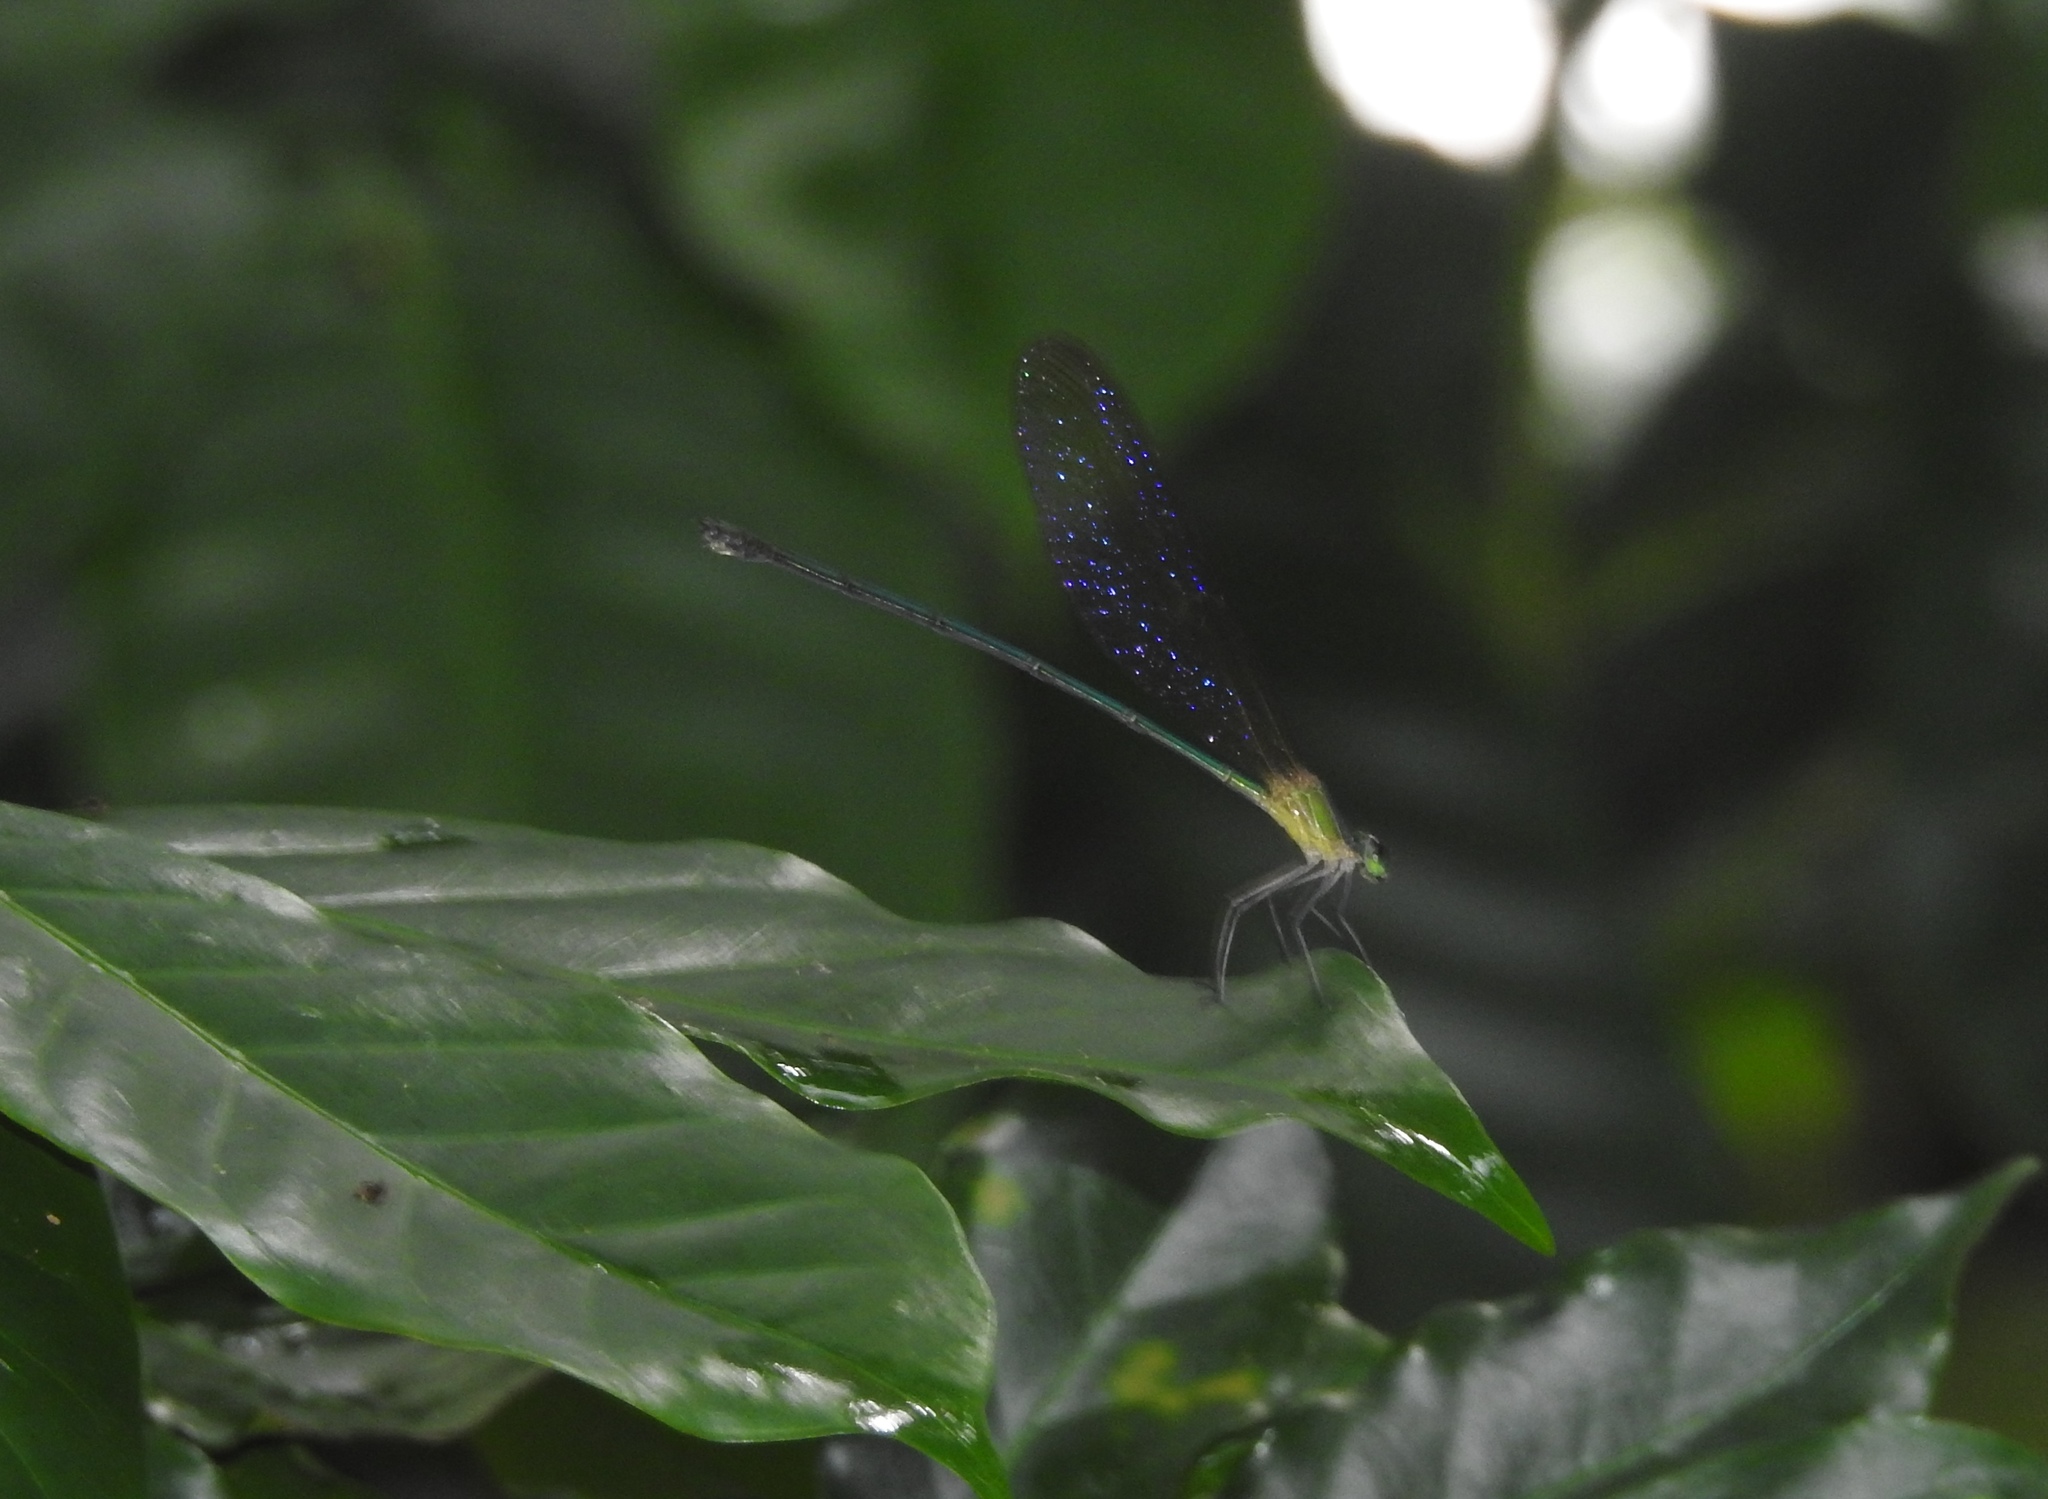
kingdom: Animalia
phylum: Arthropoda
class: Insecta
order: Odonata
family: Calopterygidae
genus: Vestalis
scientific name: Vestalis gracilis
